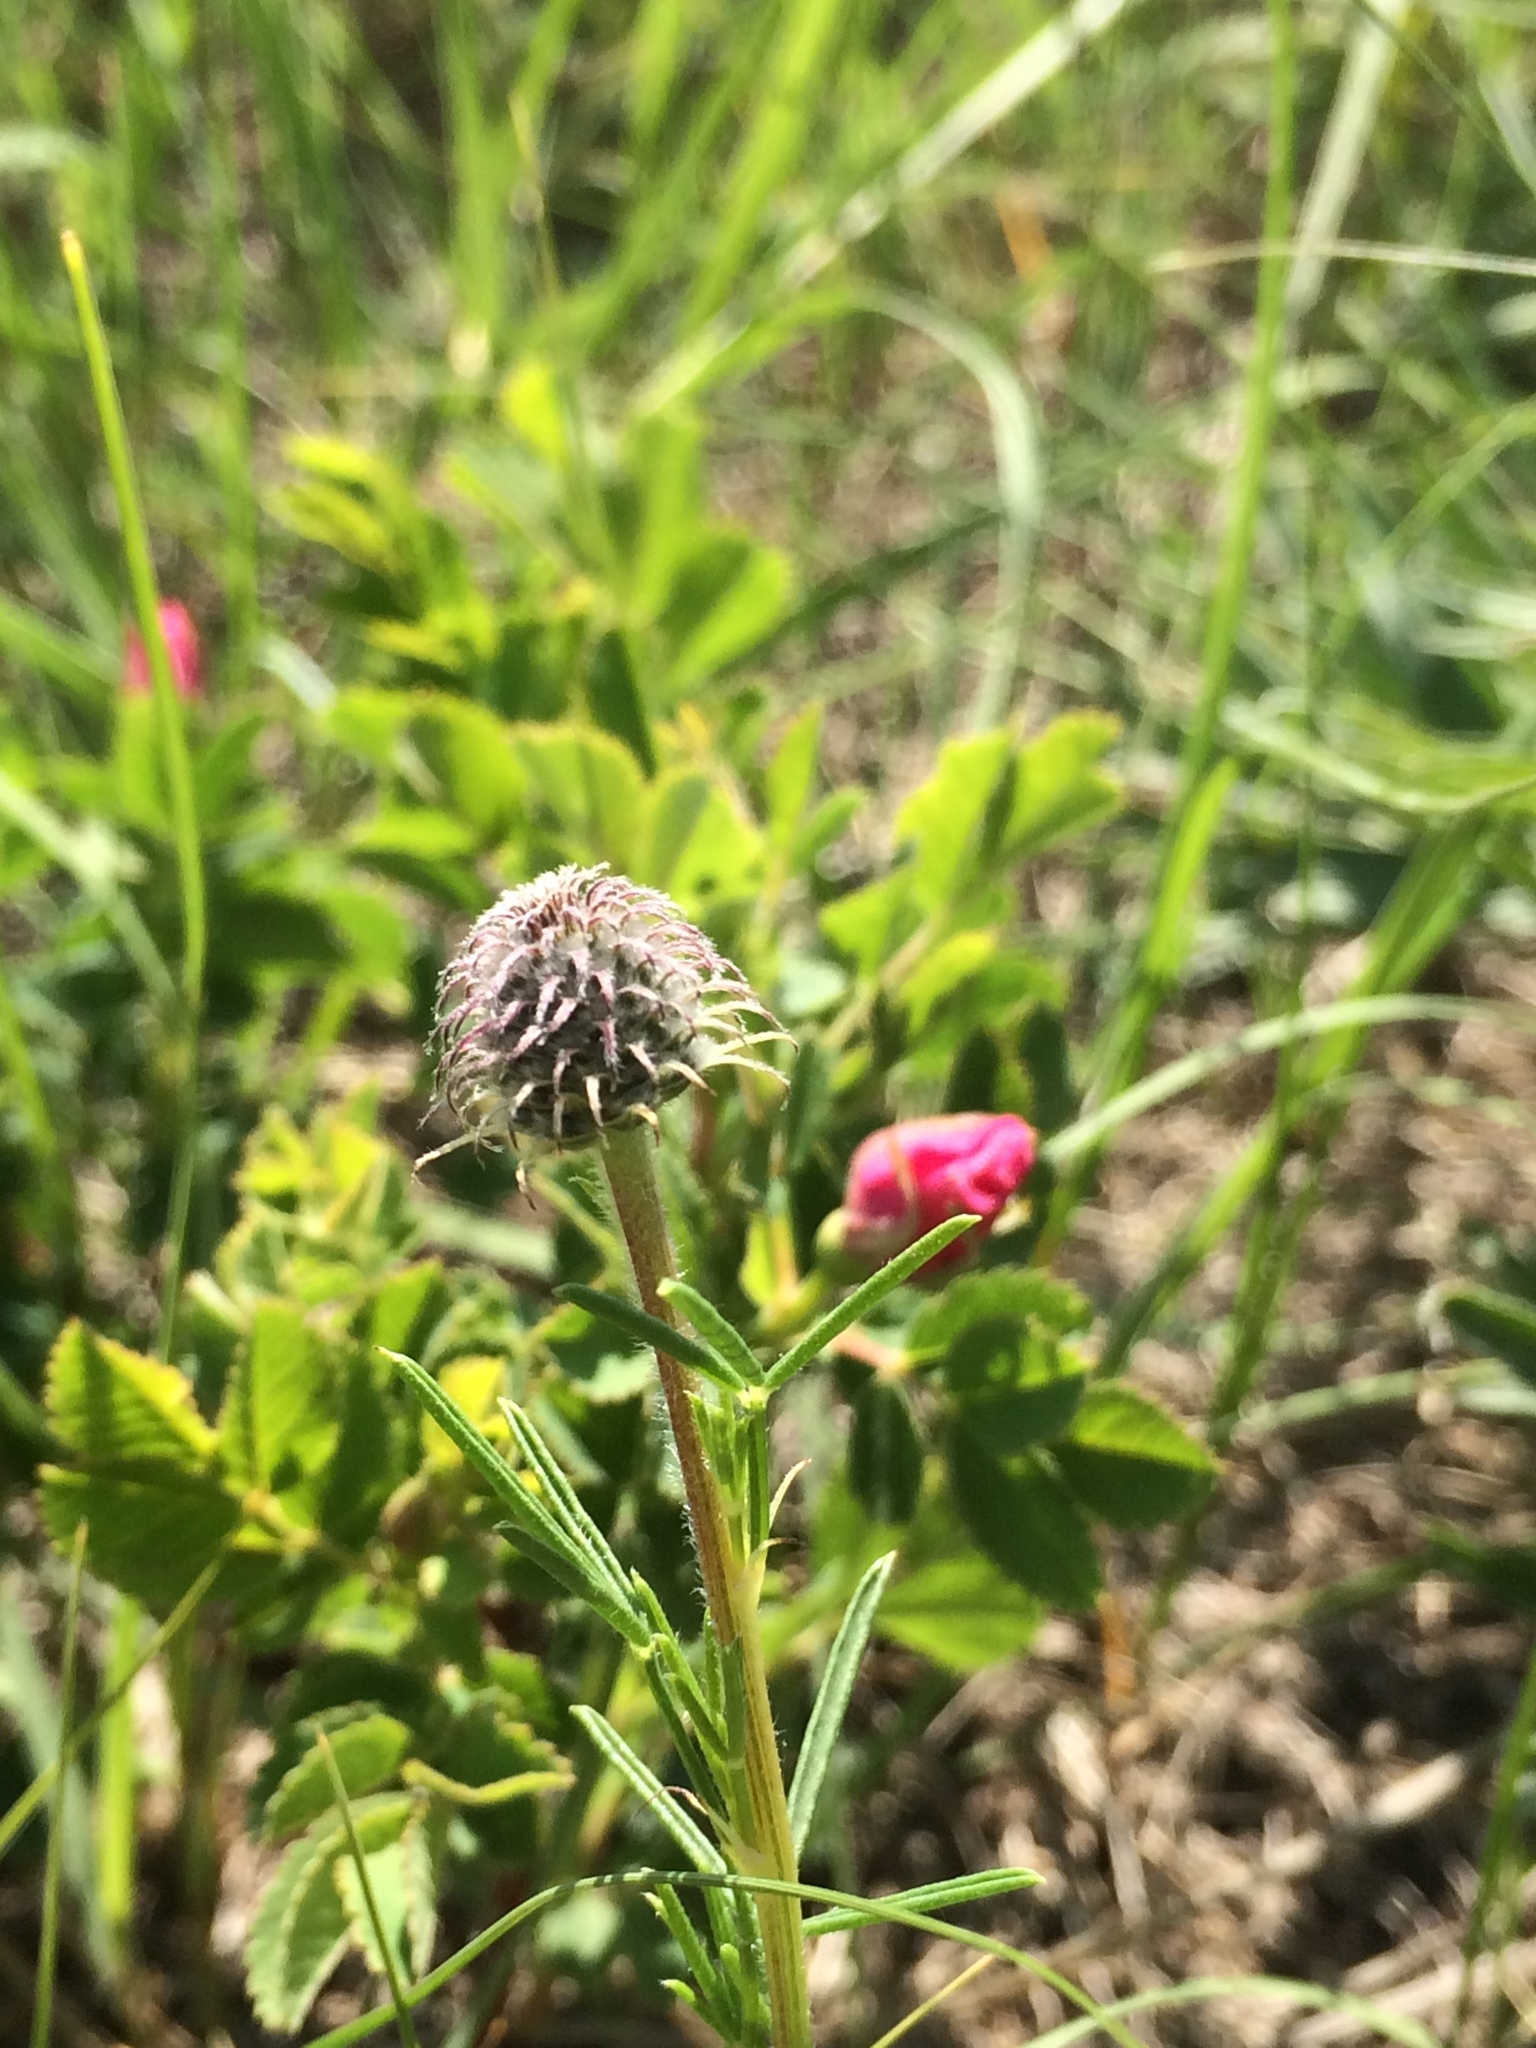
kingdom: Plantae
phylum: Tracheophyta
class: Magnoliopsida
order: Fabales
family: Fabaceae
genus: Dalea
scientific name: Dalea purpurea
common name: Purple prairie-clover
